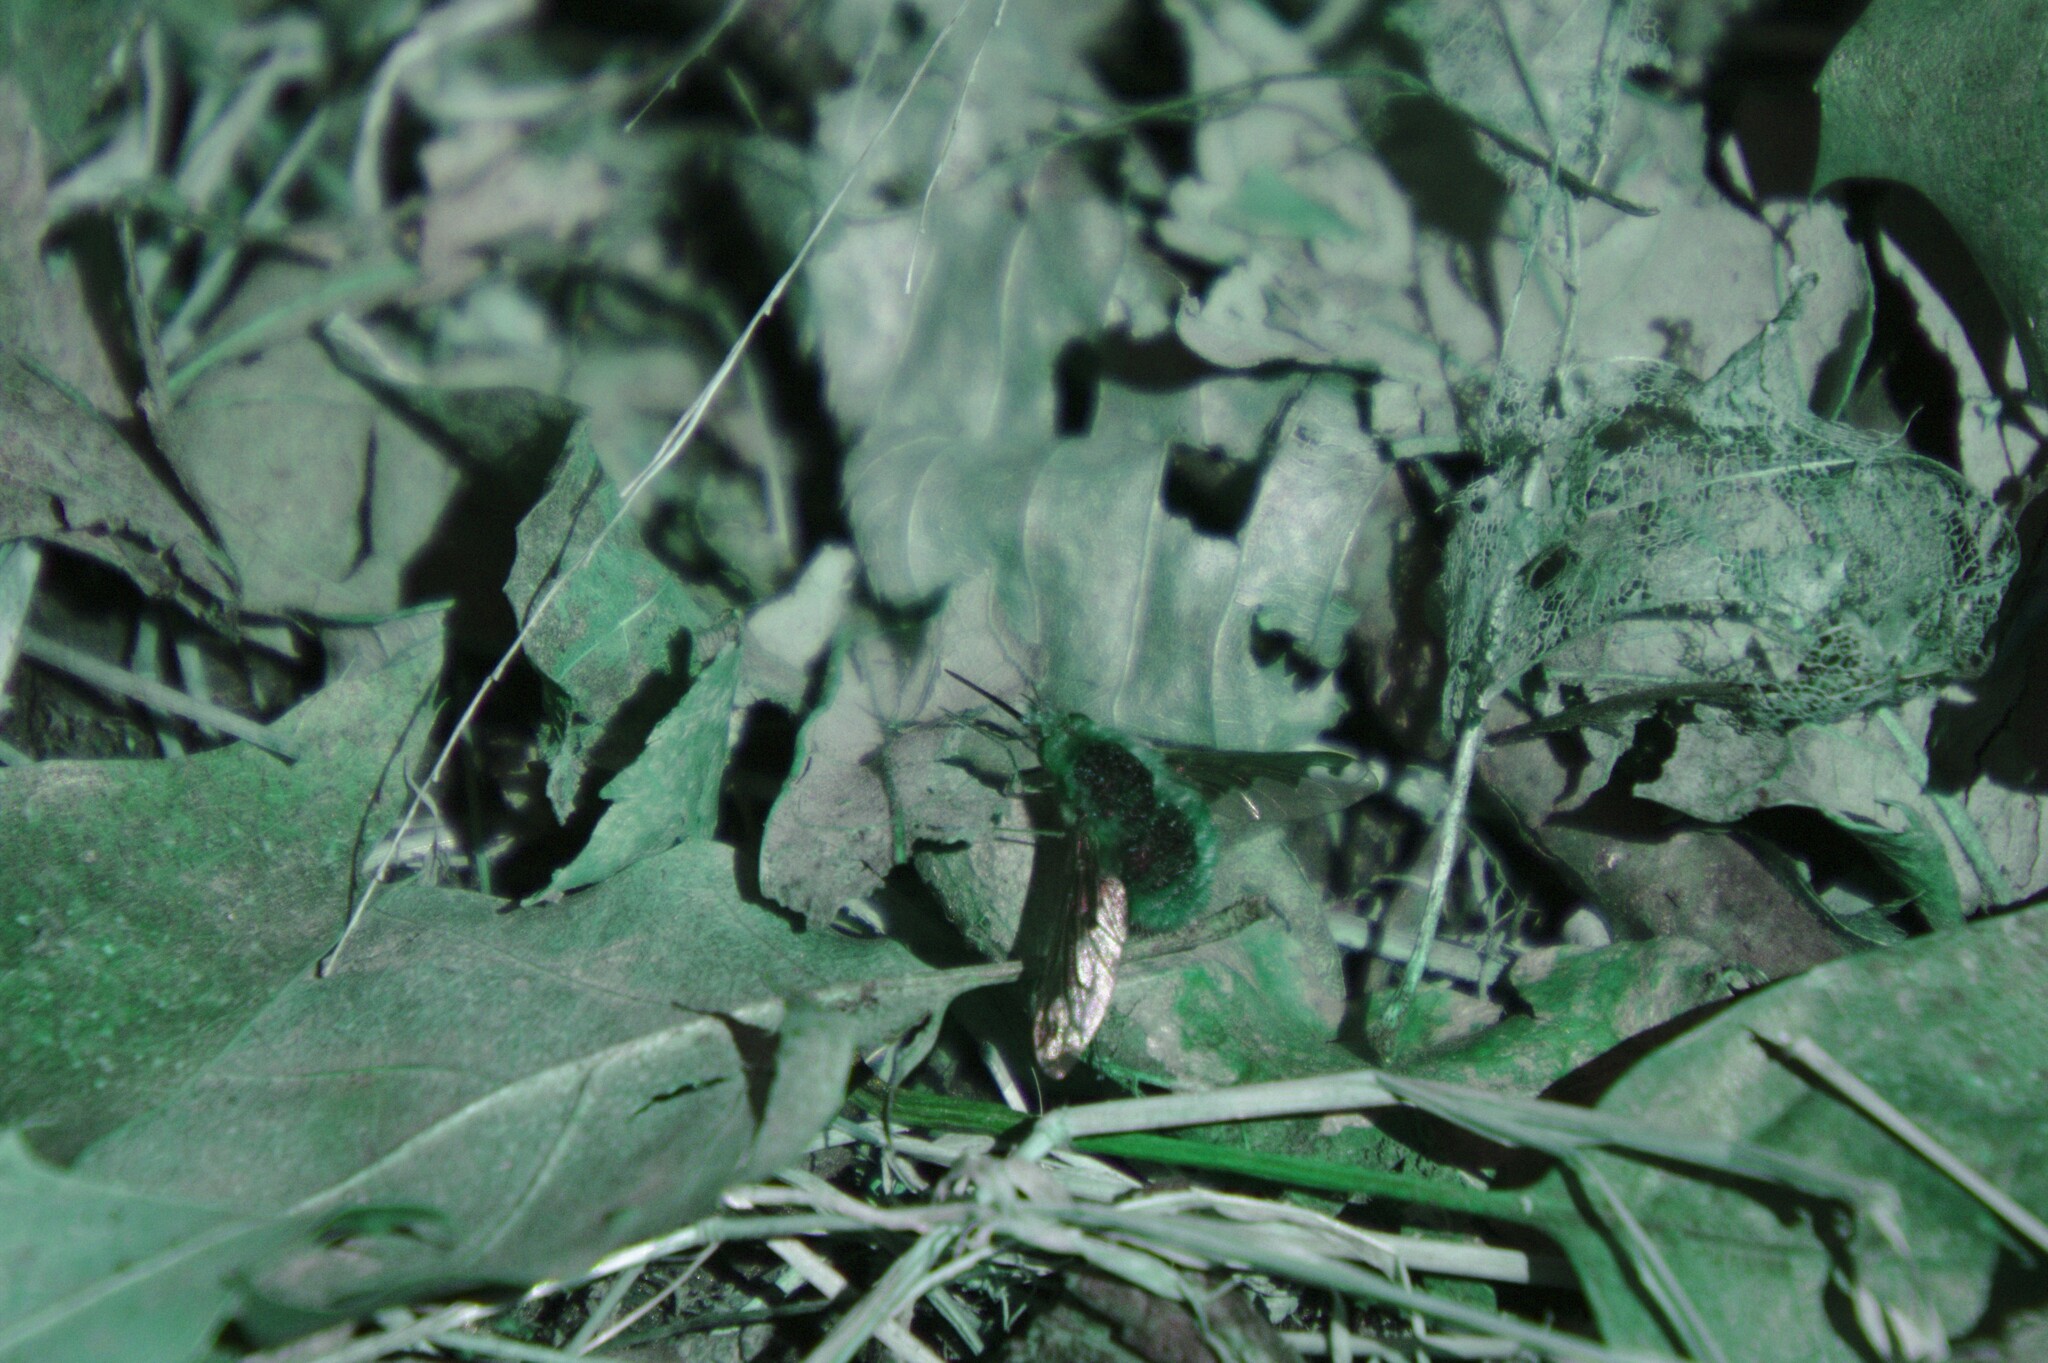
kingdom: Animalia
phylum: Arthropoda
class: Insecta
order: Diptera
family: Bombyliidae
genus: Bombylius
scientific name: Bombylius major
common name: Bee fly
